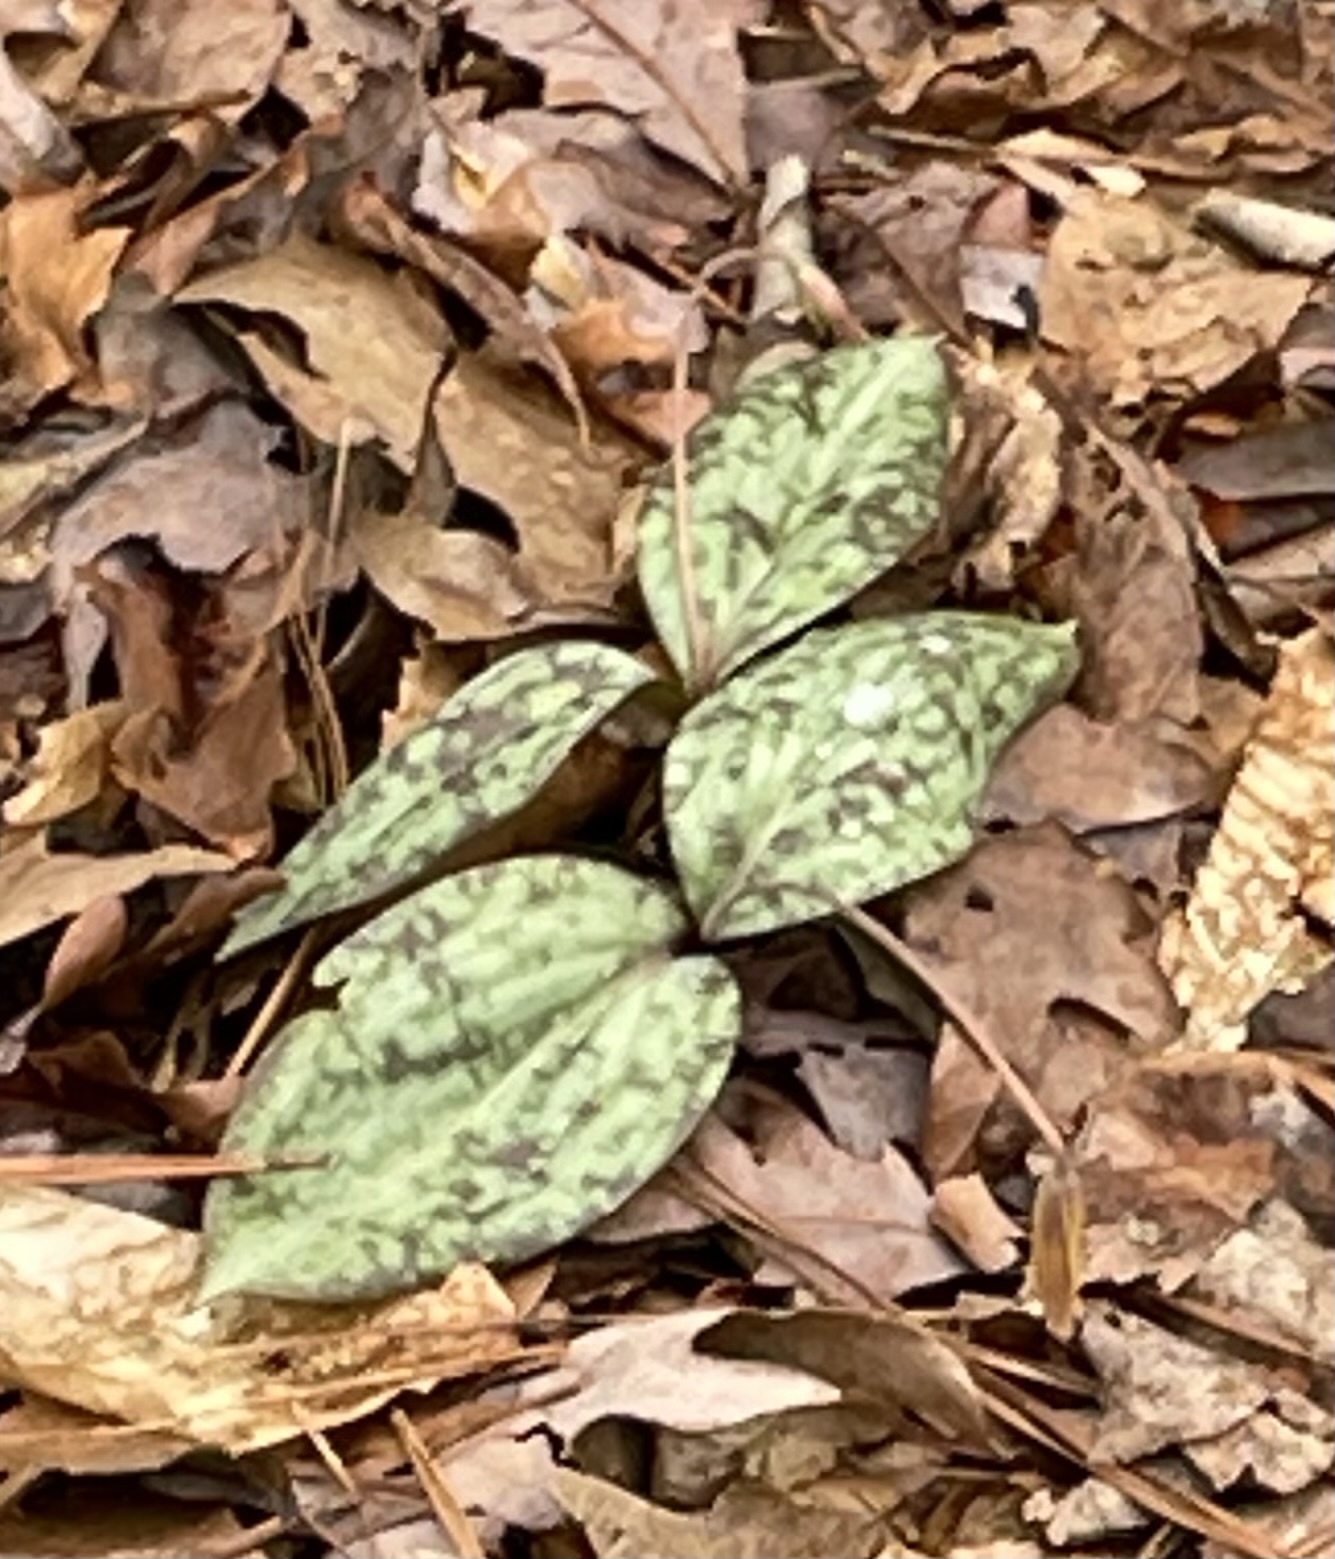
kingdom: Plantae
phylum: Tracheophyta
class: Liliopsida
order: Liliales
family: Liliaceae
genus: Erythronium
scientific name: Erythronium umbilicatum
